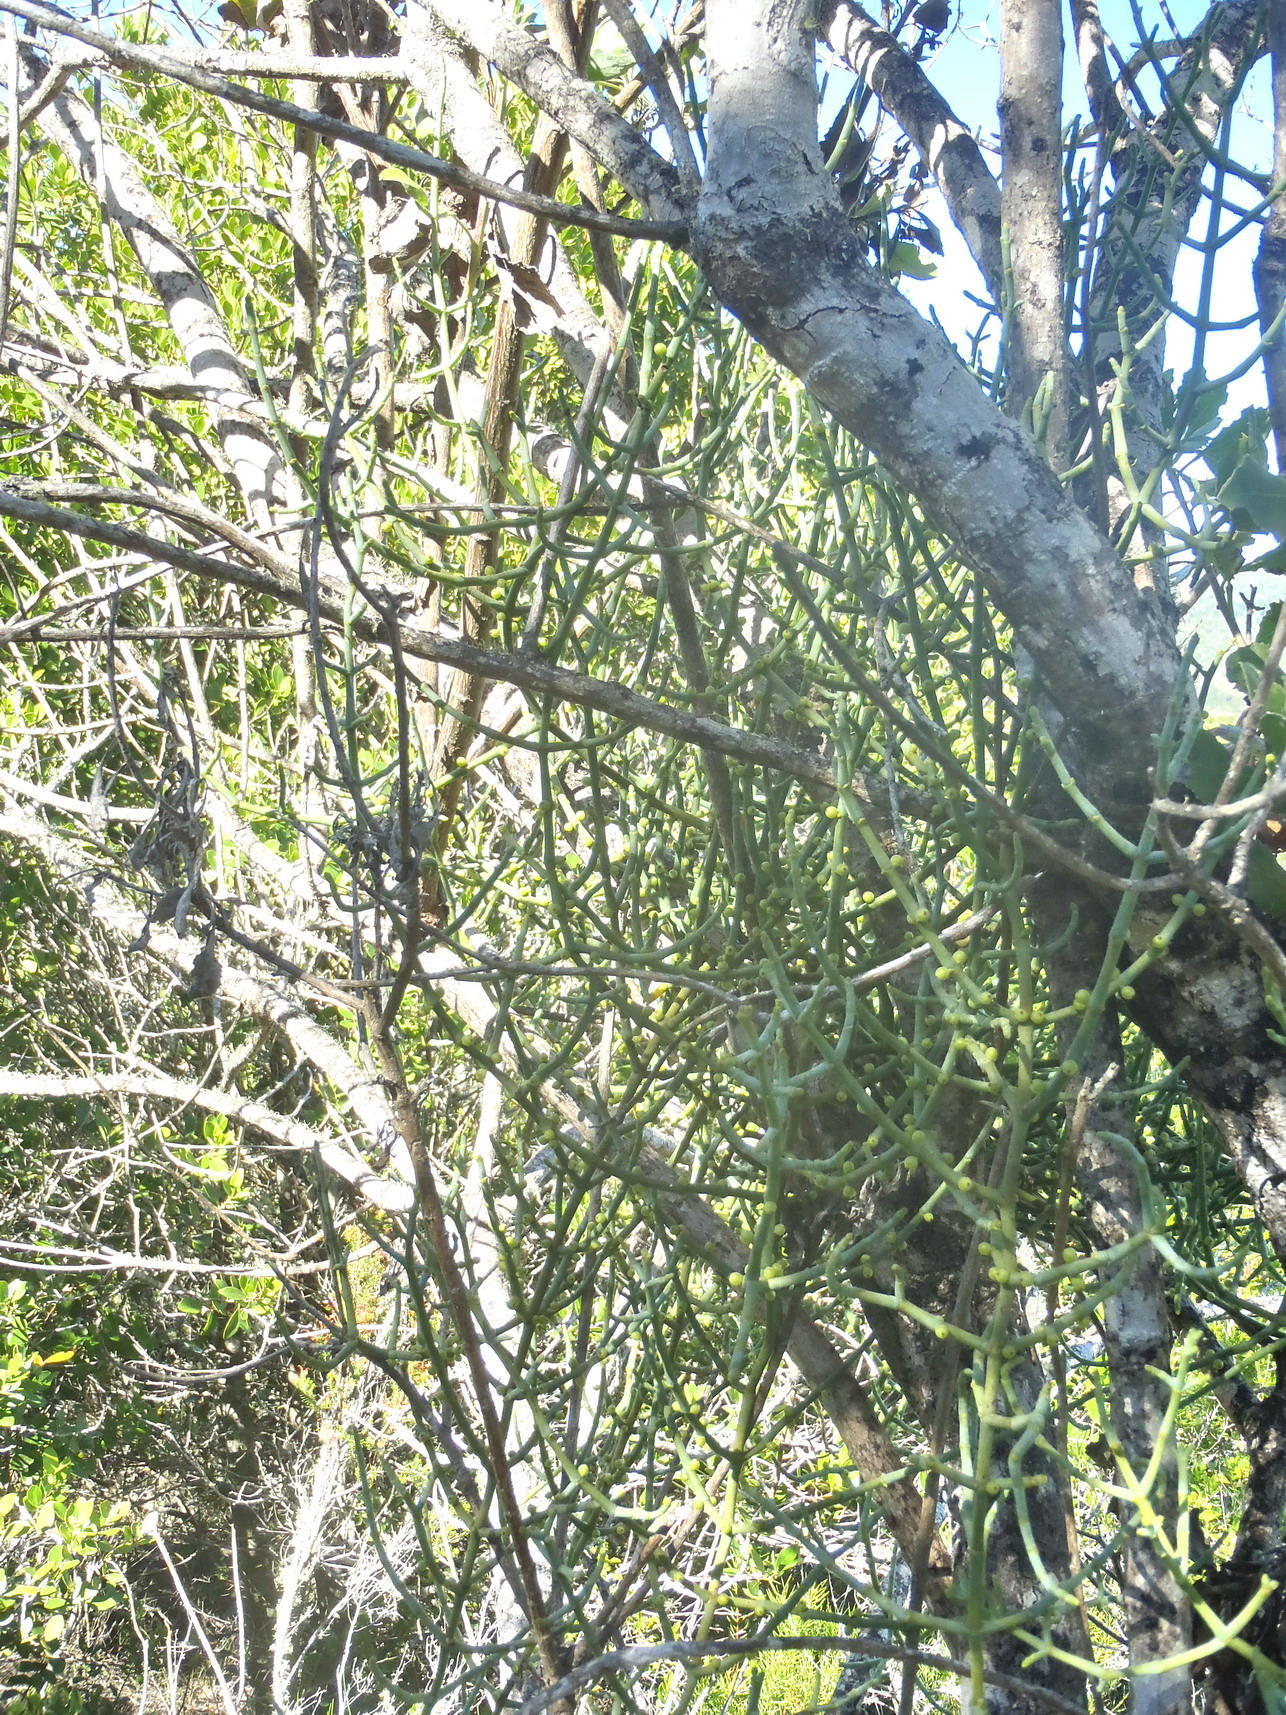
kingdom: Plantae
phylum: Tracheophyta
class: Magnoliopsida
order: Santalales
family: Viscaceae
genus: Viscum
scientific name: Viscum capense
